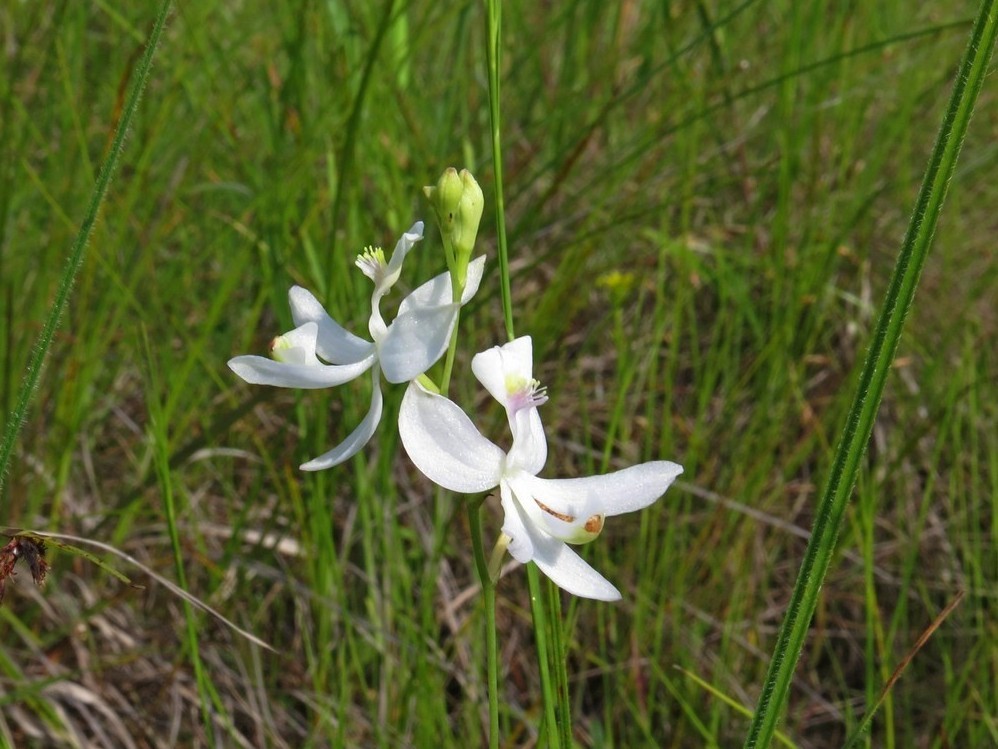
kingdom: Plantae
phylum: Tracheophyta
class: Liliopsida
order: Asparagales
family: Orchidaceae
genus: Calopogon
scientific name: Calopogon pallidus
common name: Pale grasspink
